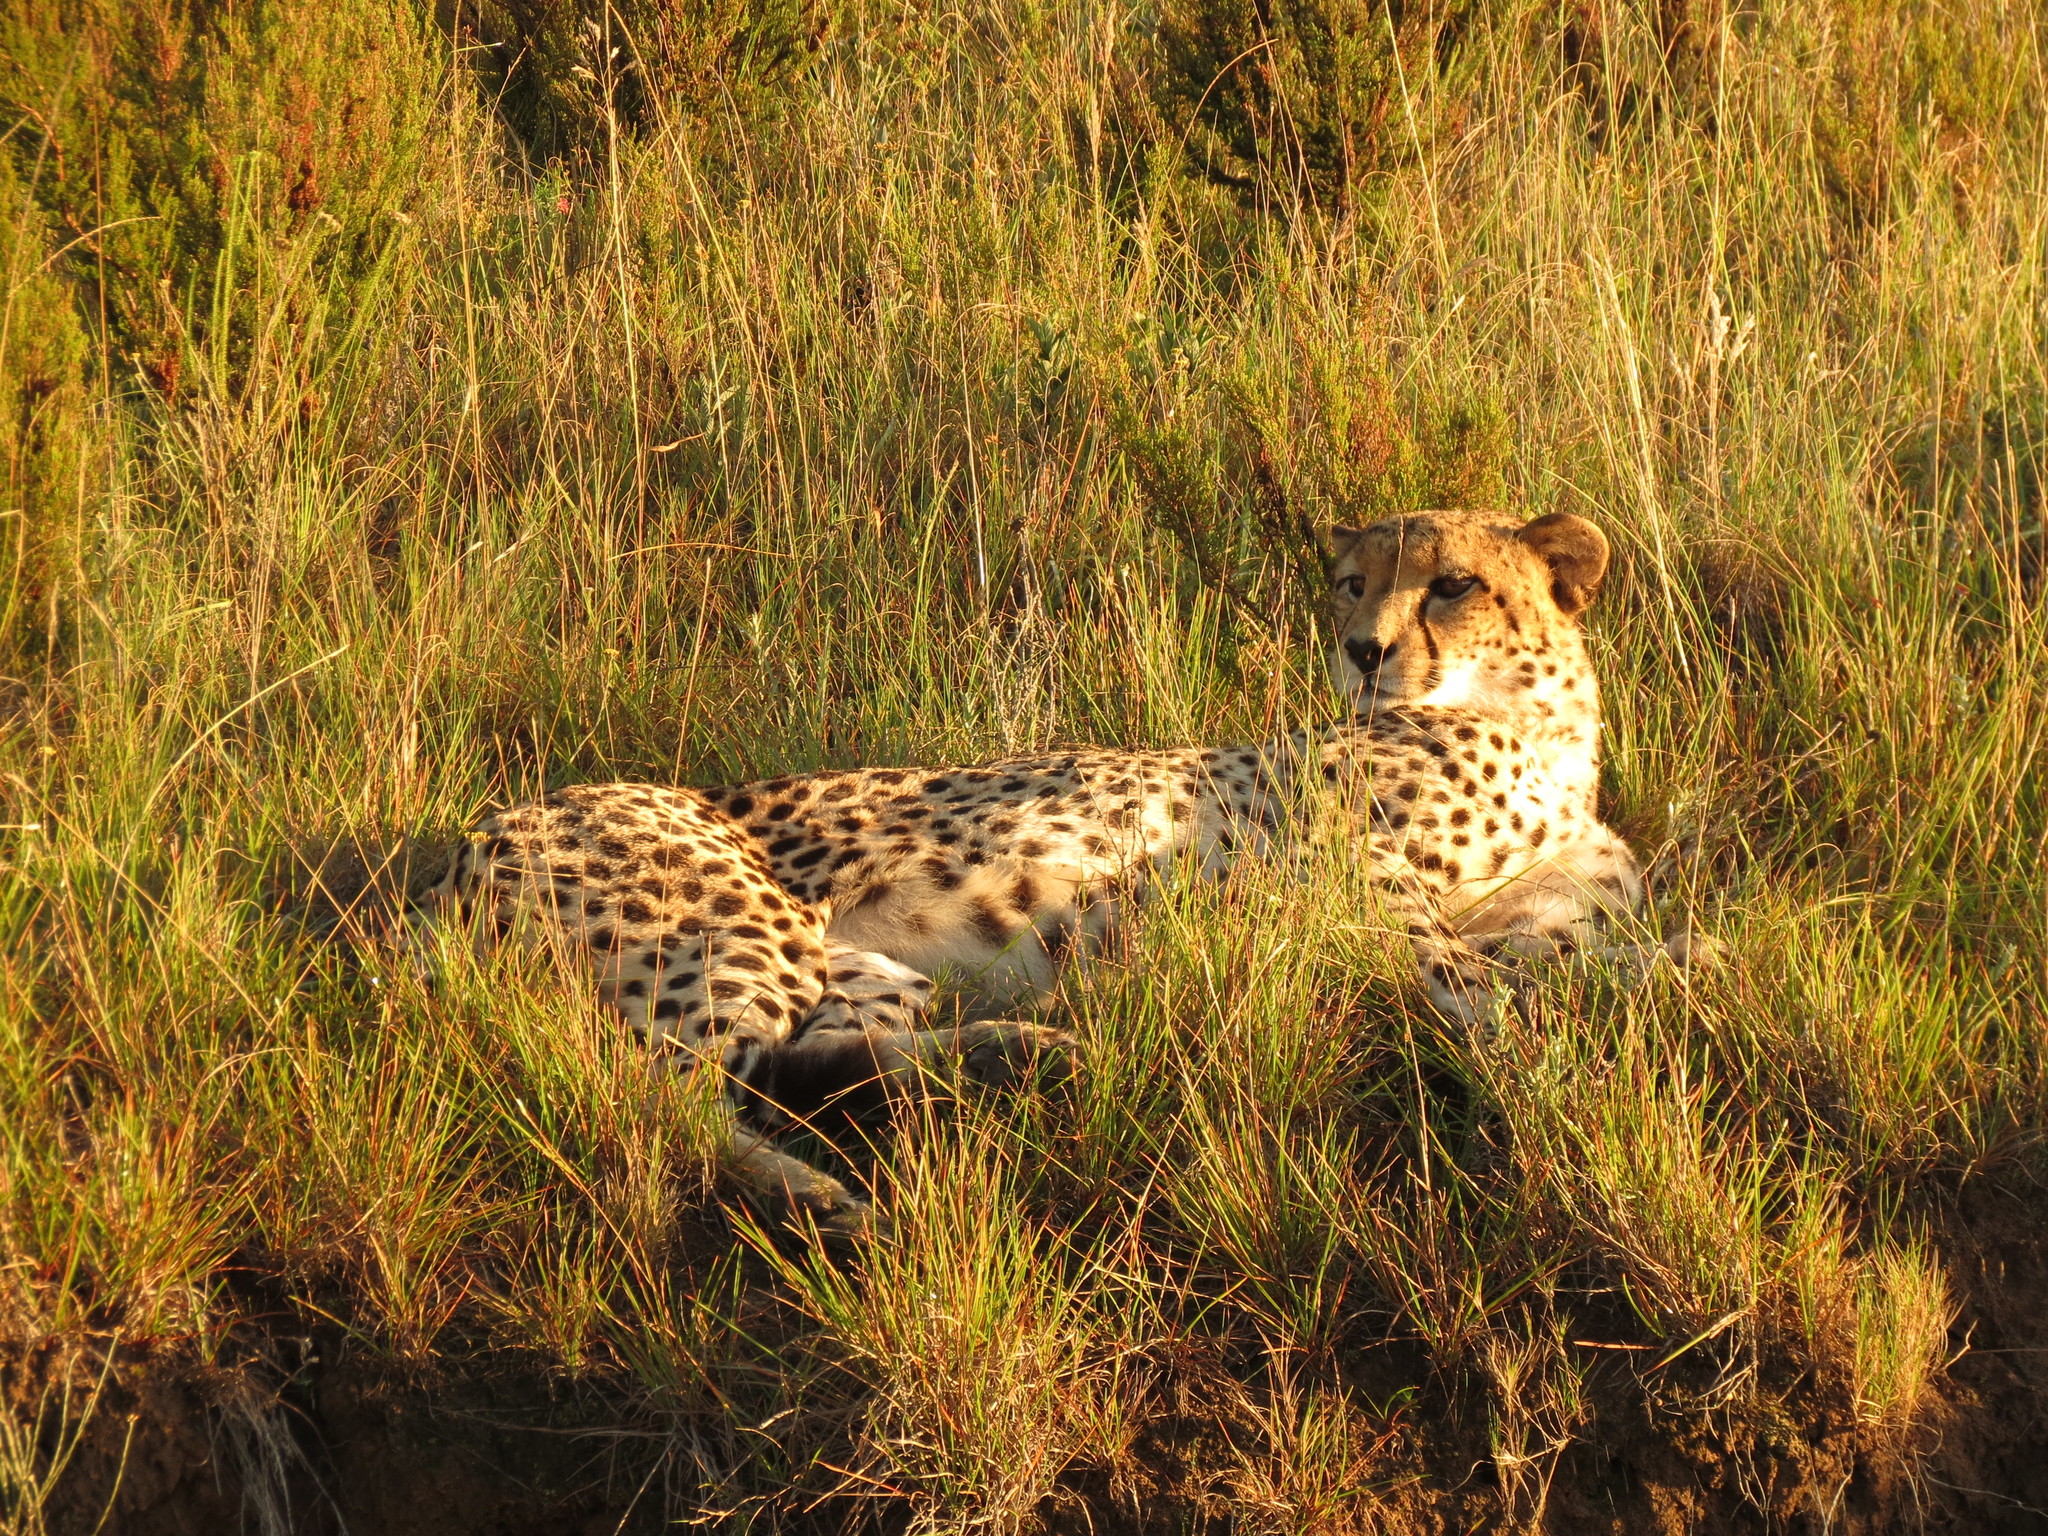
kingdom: Animalia
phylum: Chordata
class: Mammalia
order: Carnivora
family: Felidae
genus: Acinonyx
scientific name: Acinonyx jubatus
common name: Cheetah
